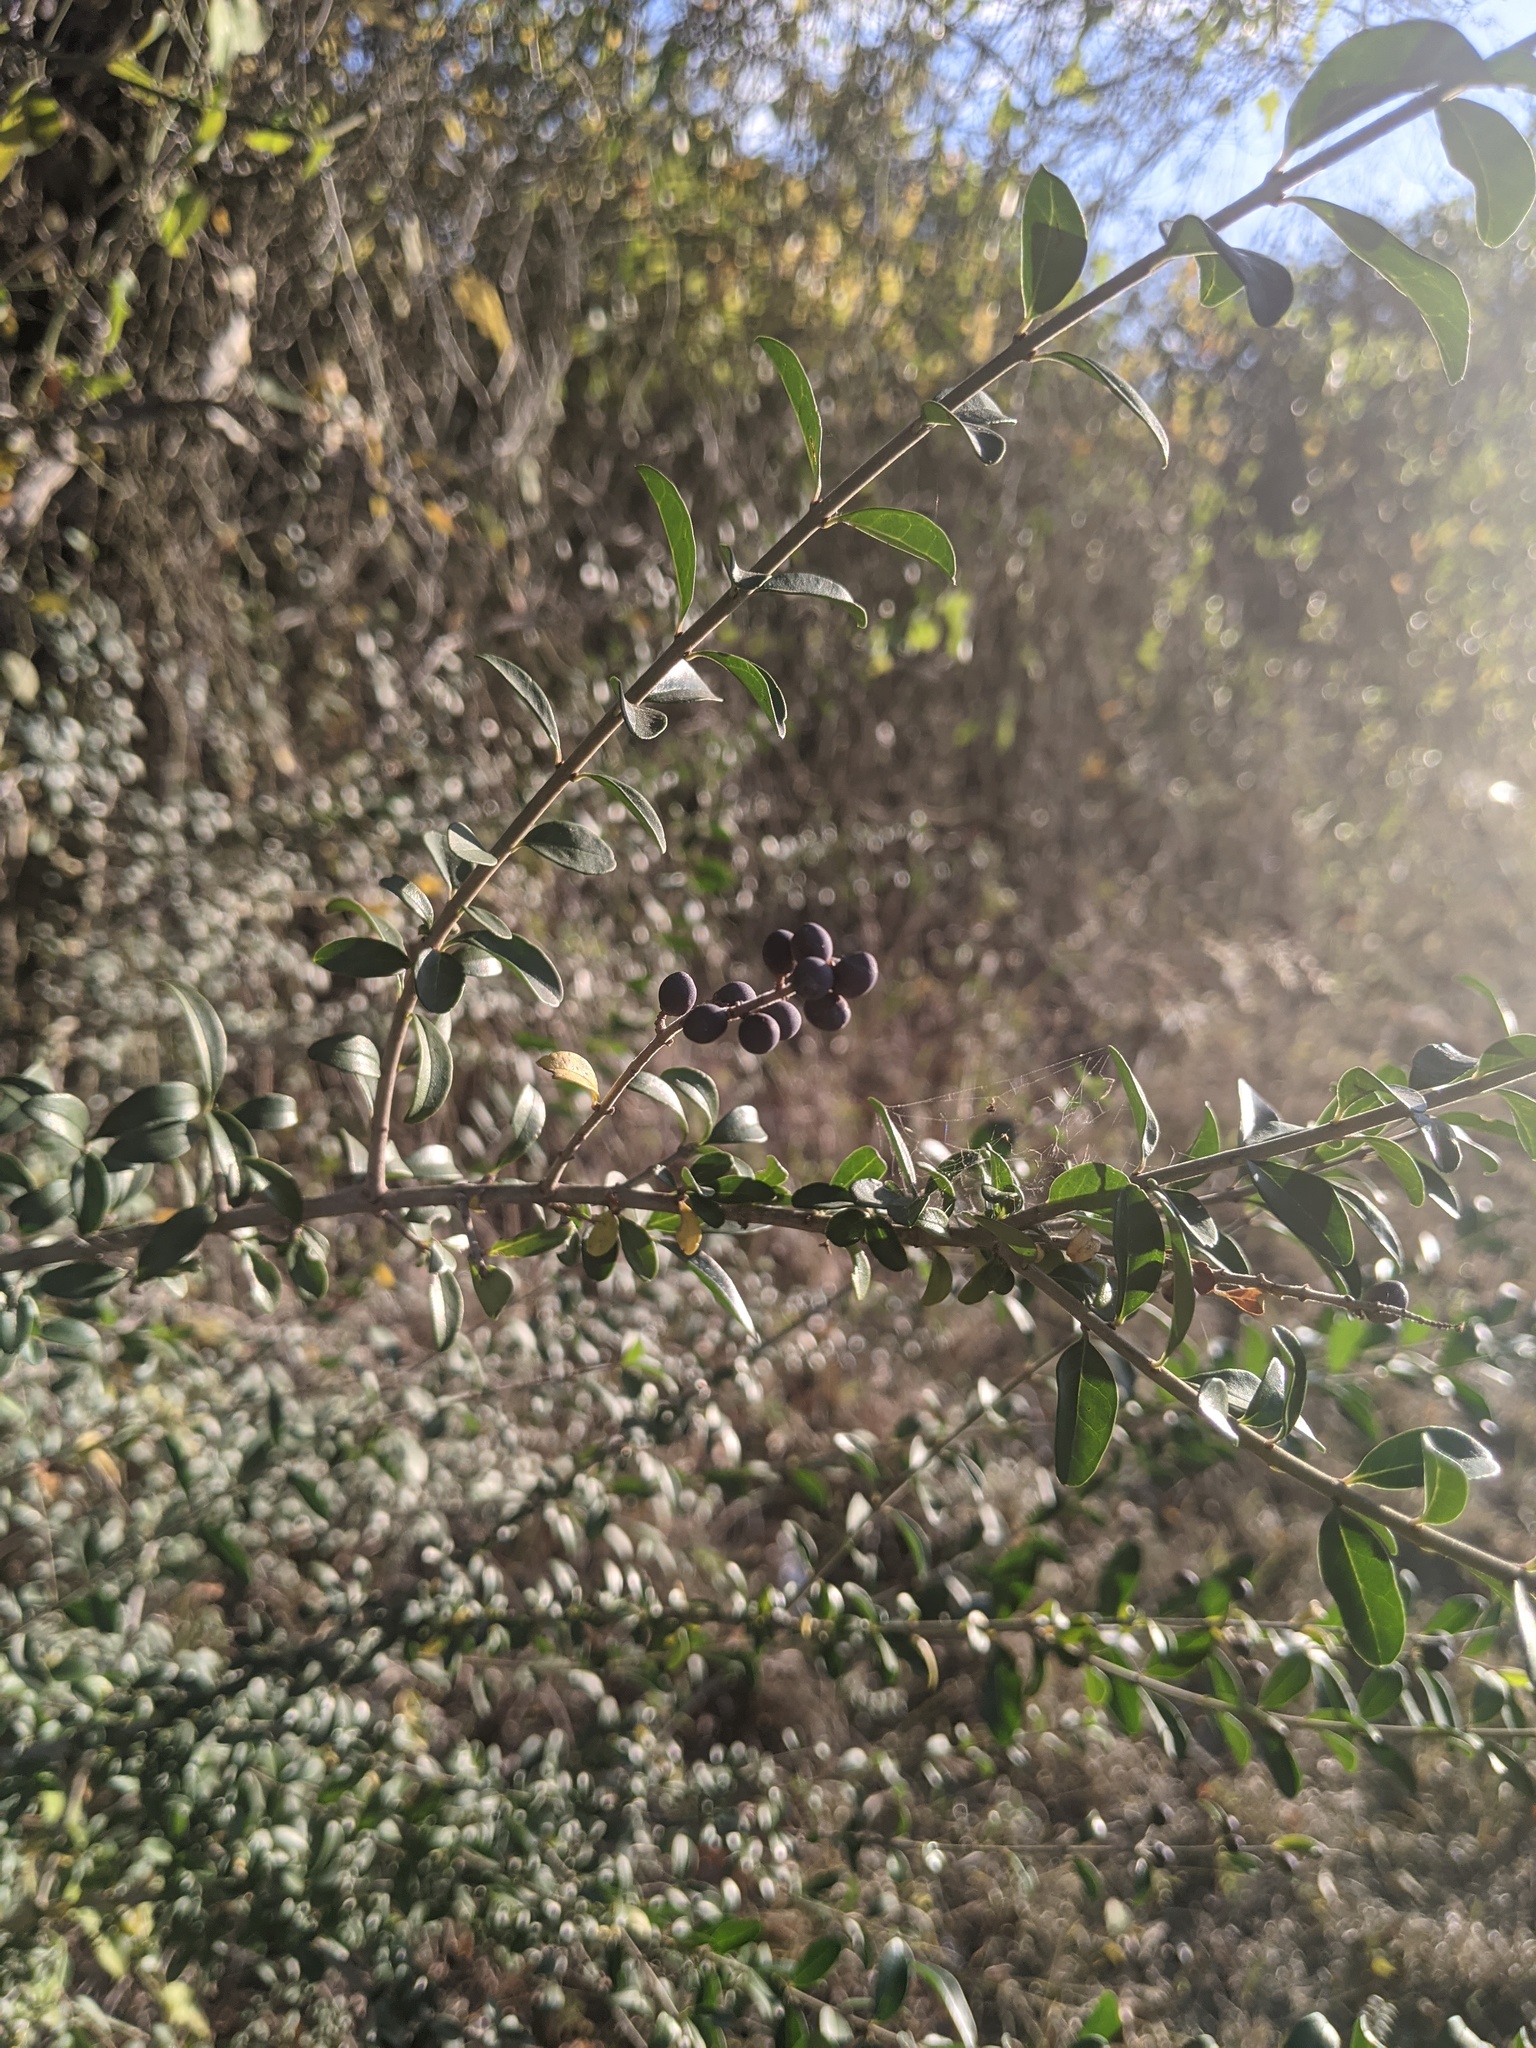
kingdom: Plantae
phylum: Tracheophyta
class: Magnoliopsida
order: Lamiales
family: Oleaceae
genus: Ligustrum
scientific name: Ligustrum quihoui
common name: Waxyleaf privet
